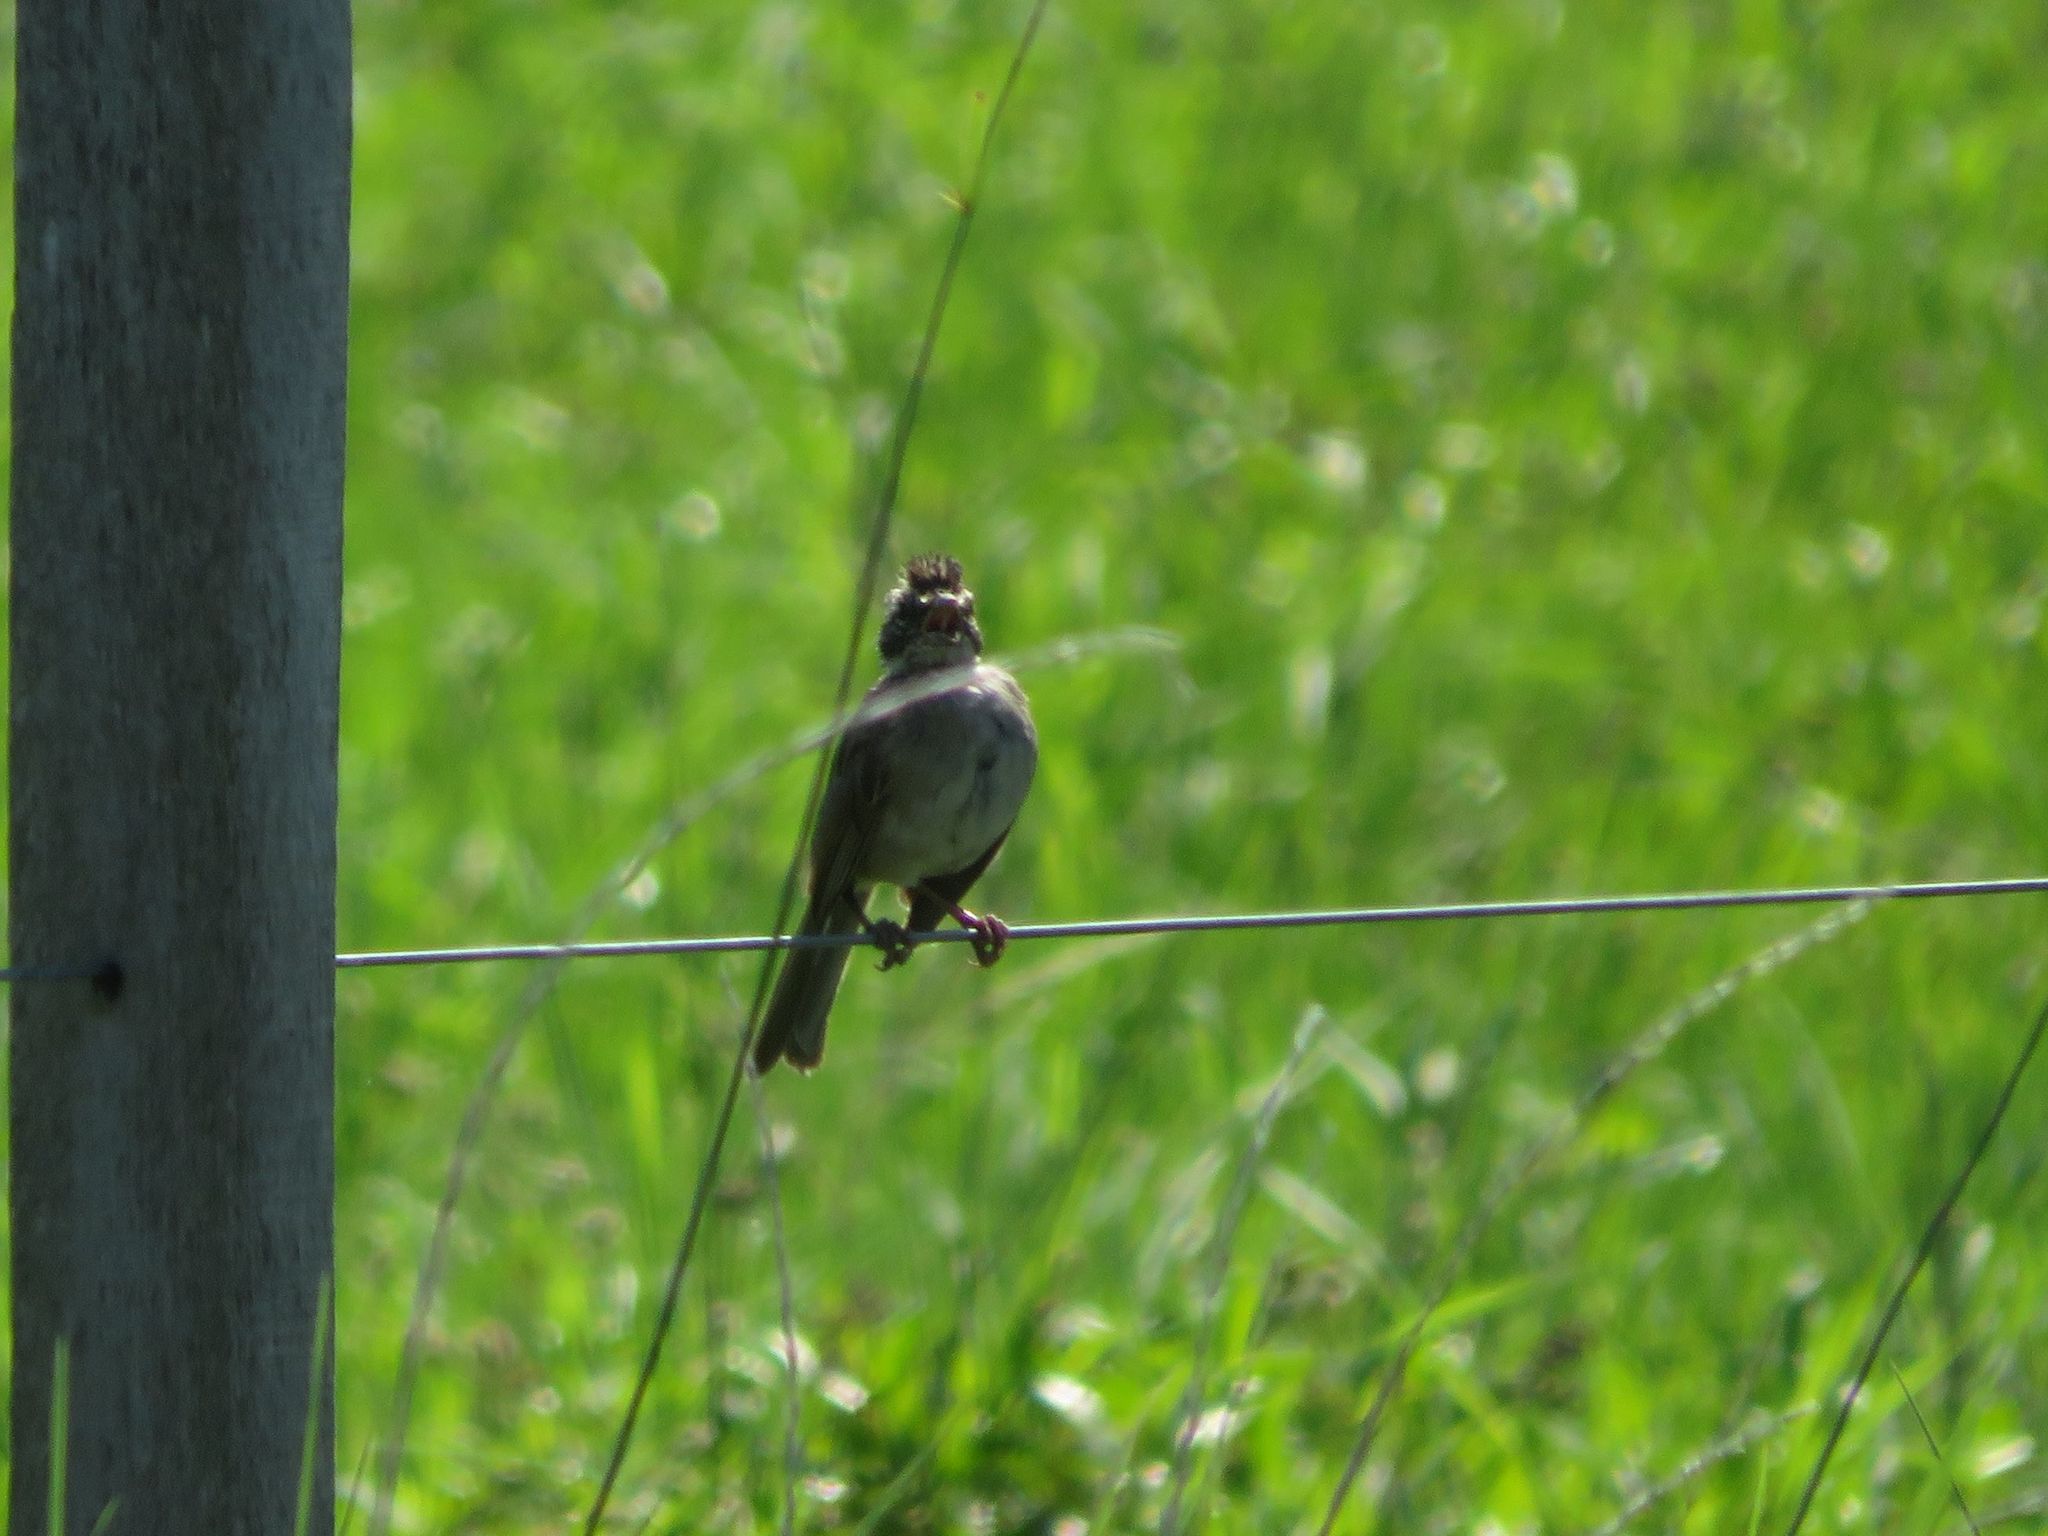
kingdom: Animalia
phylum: Chordata
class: Aves
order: Passeriformes
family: Passerellidae
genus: Zonotrichia
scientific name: Zonotrichia capensis
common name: Rufous-collared sparrow
